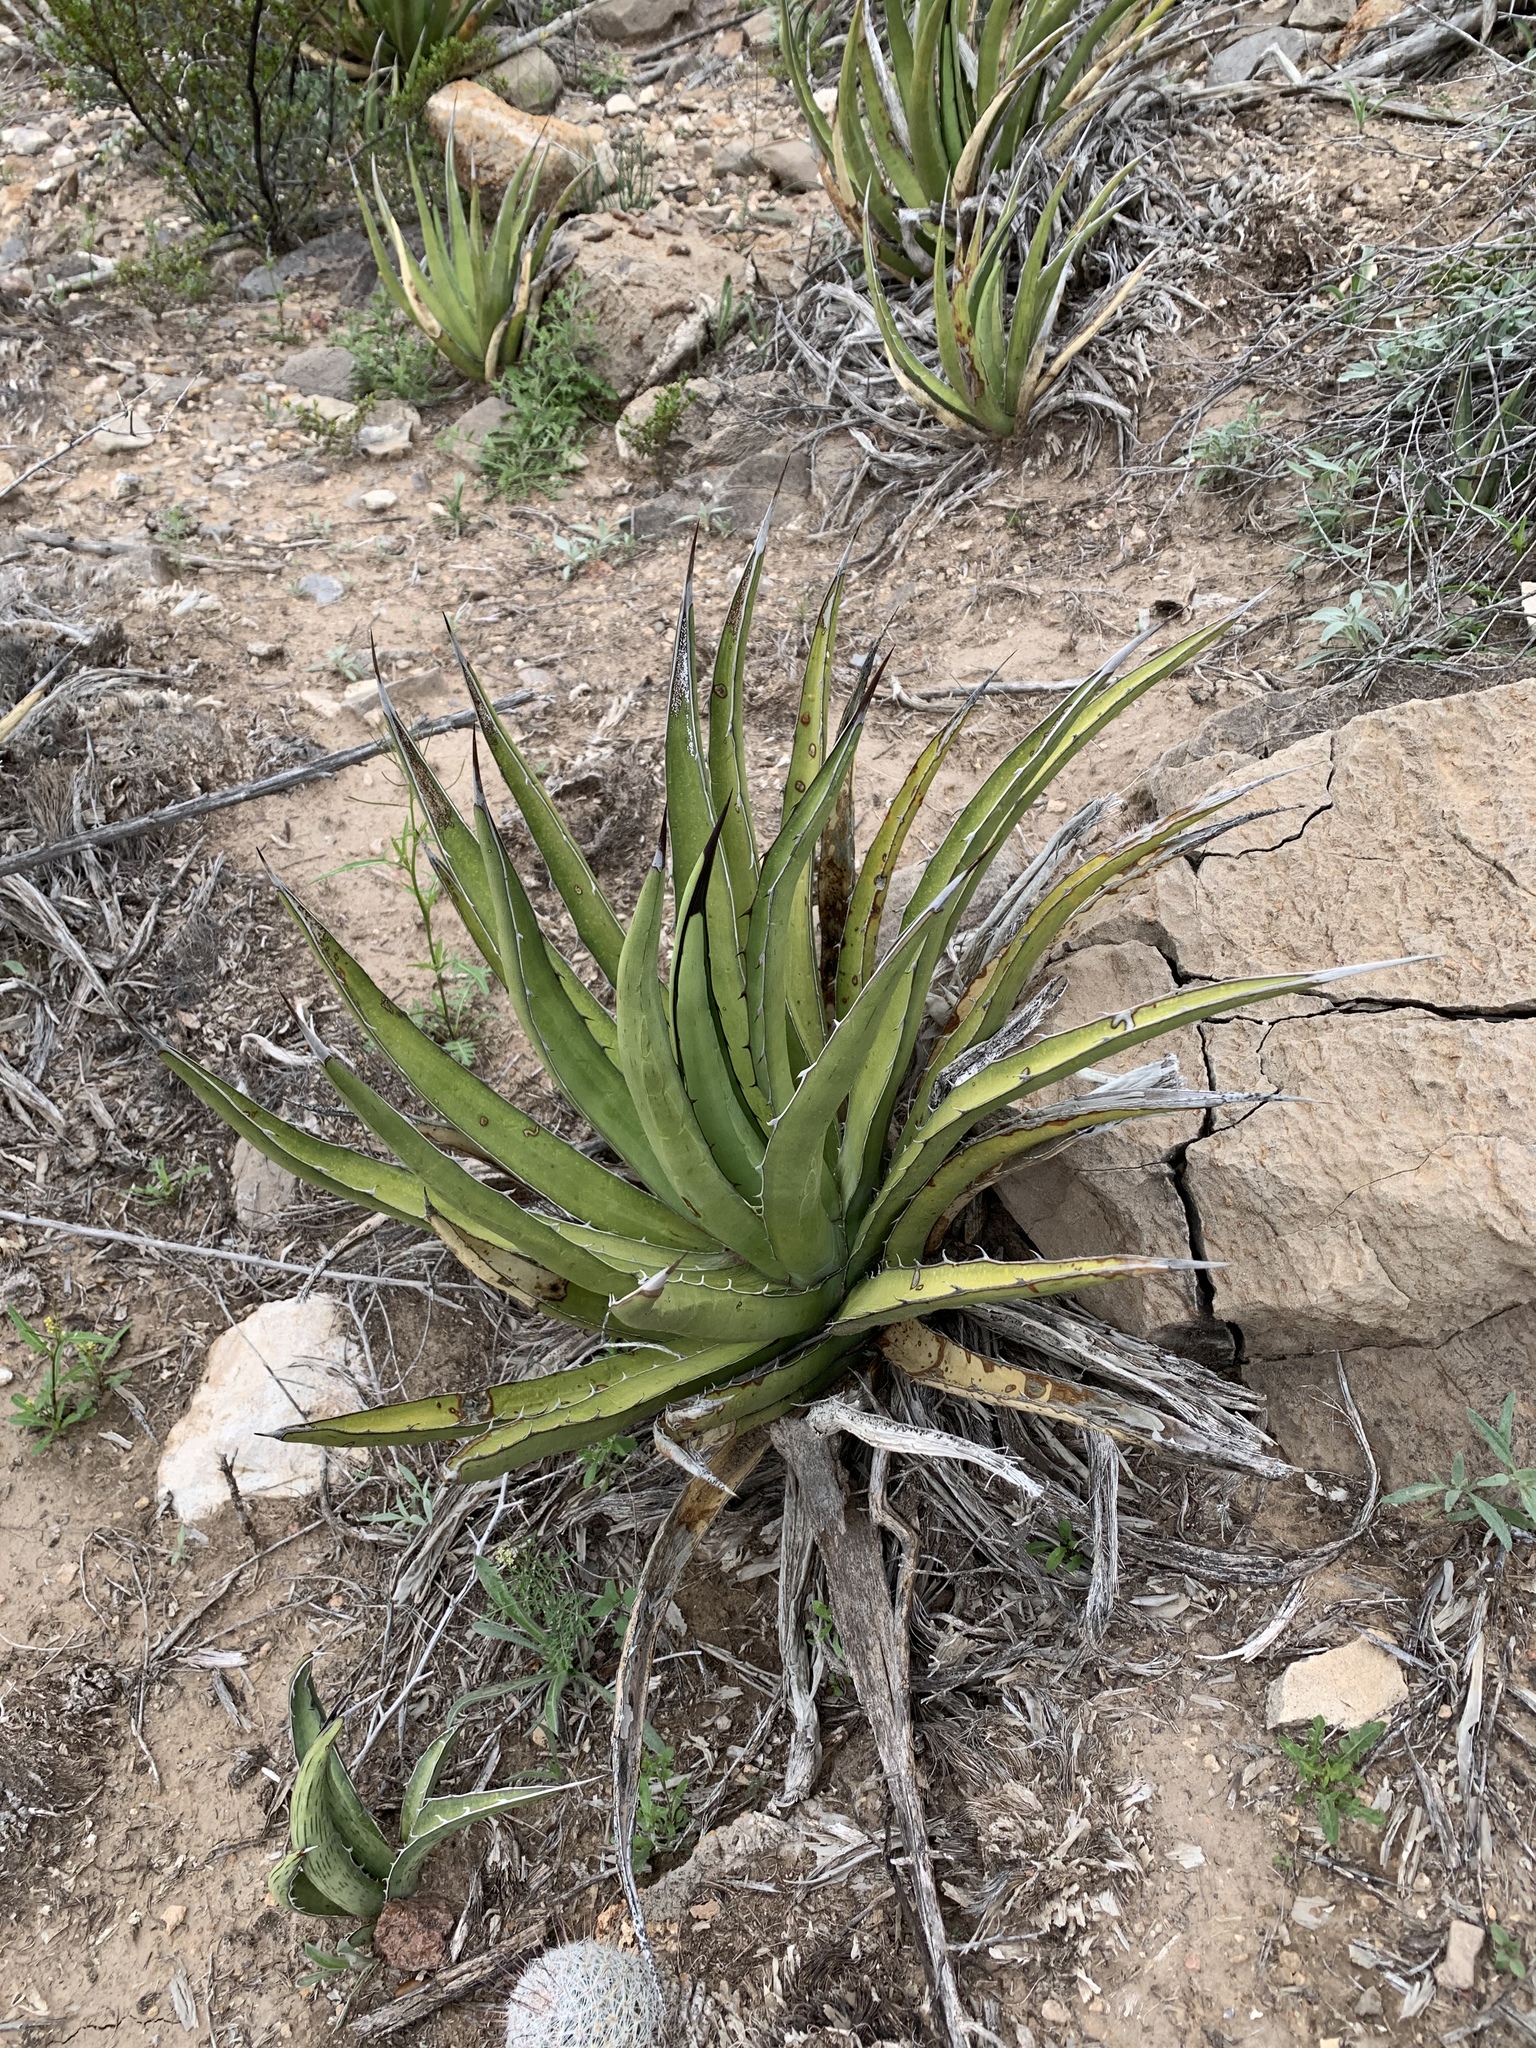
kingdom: Plantae
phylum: Tracheophyta
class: Liliopsida
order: Asparagales
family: Asparagaceae
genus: Agave
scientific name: Agave lechuguilla
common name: Lecheguilla agave
